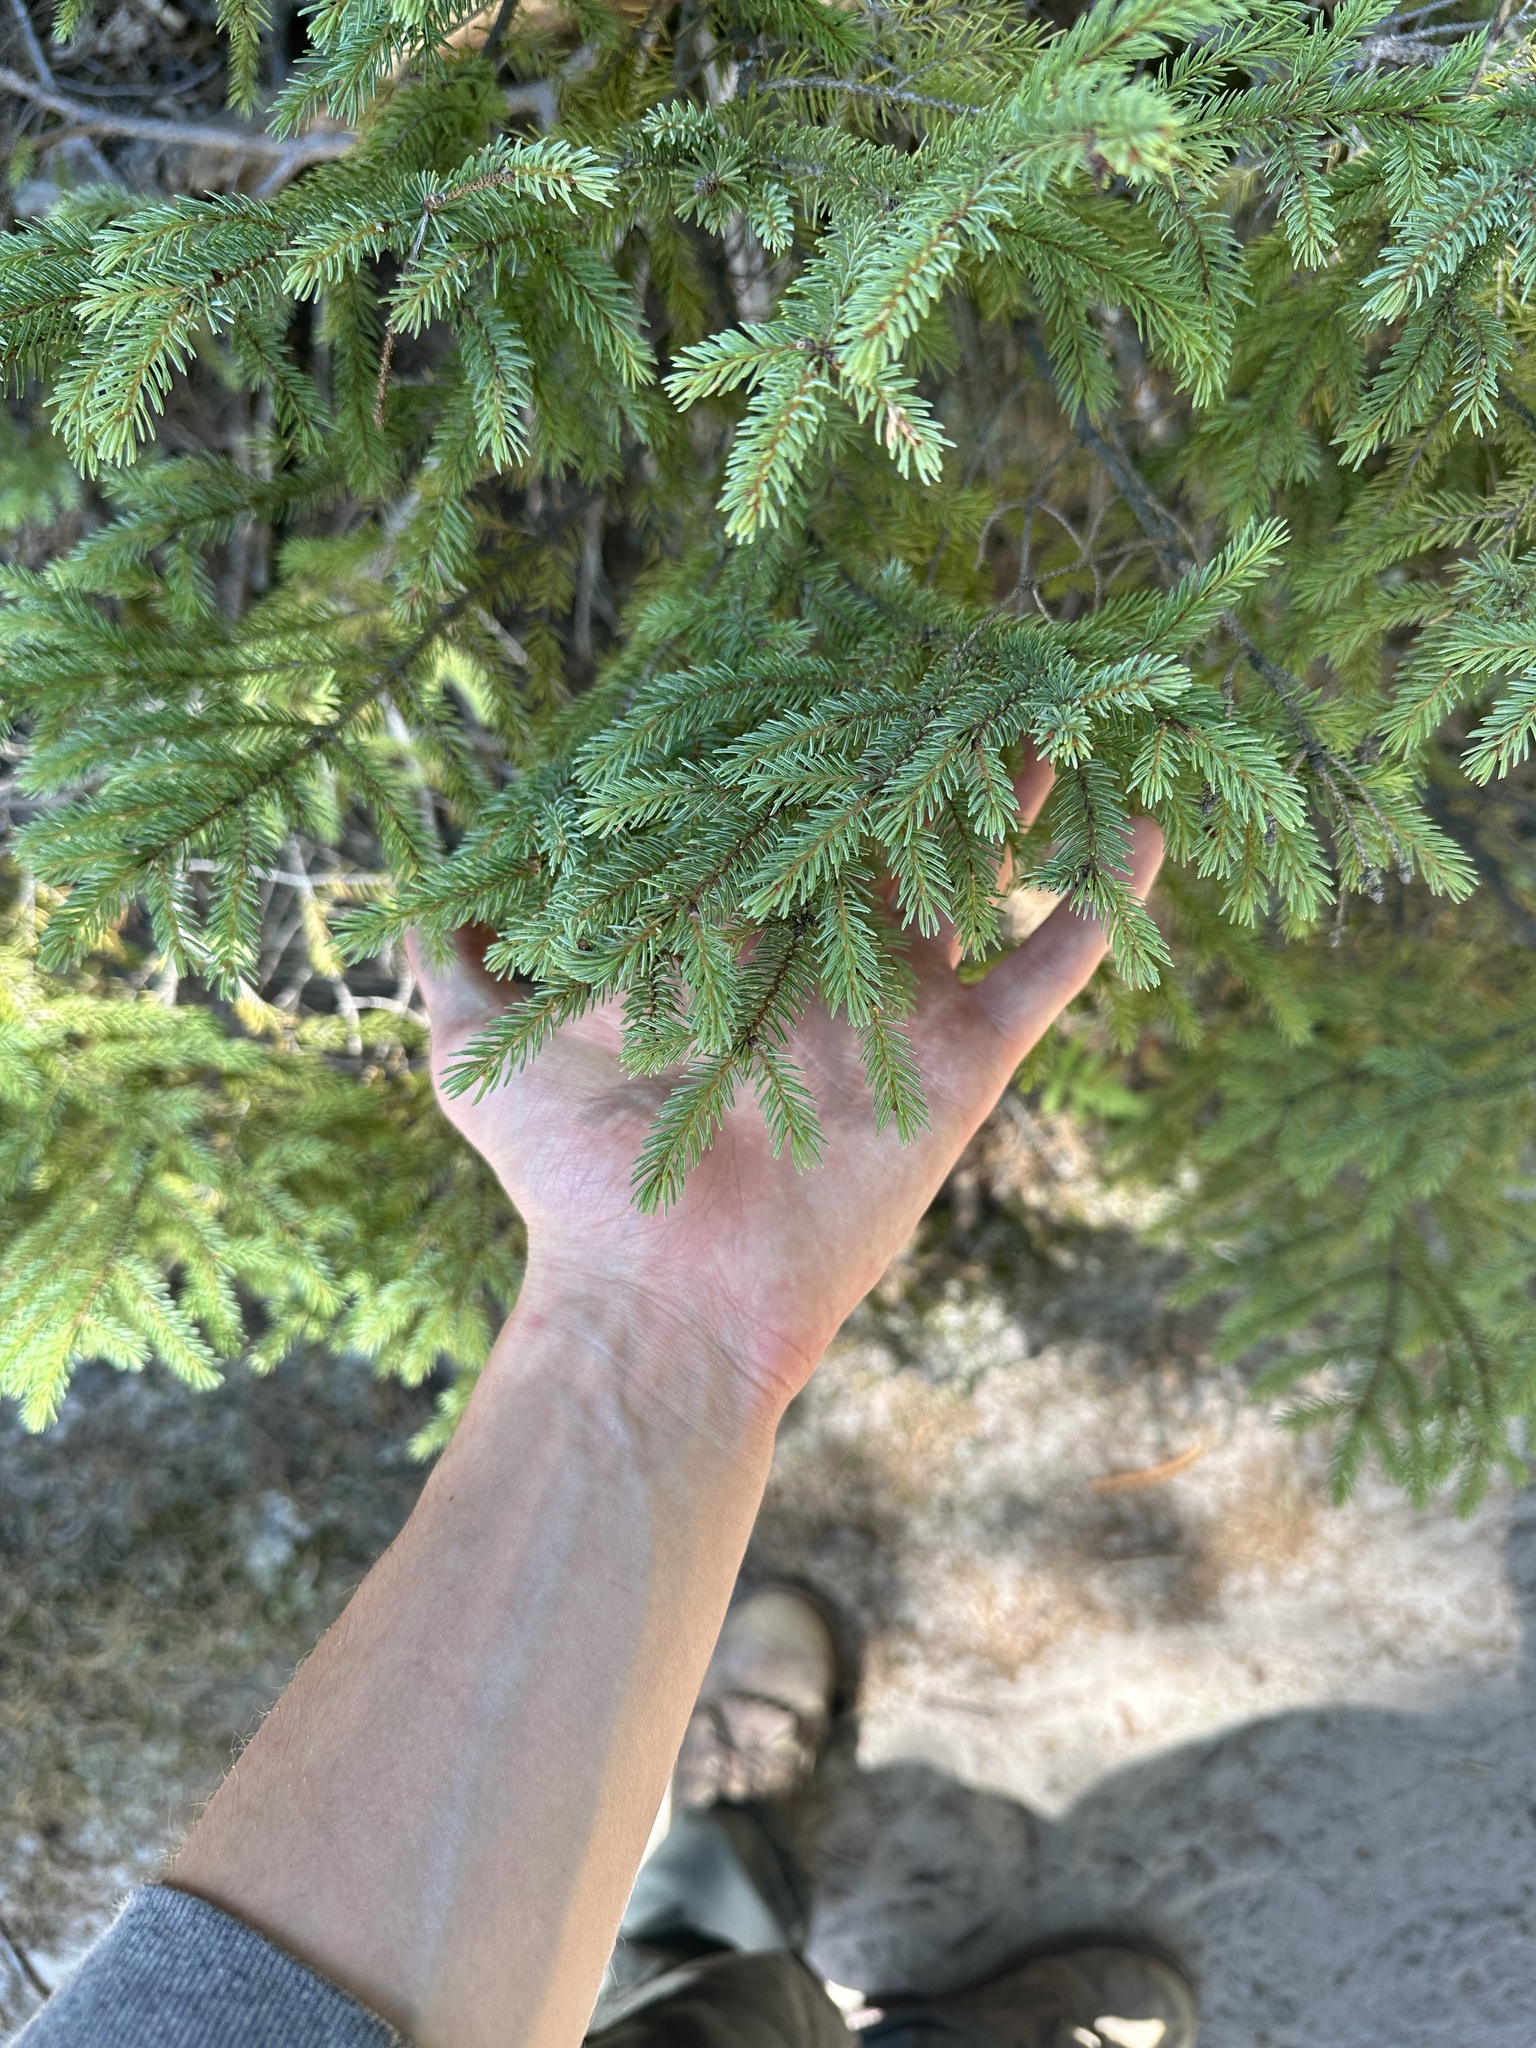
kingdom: Plantae
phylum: Tracheophyta
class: Pinopsida
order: Pinales
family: Pinaceae
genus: Picea
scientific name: Picea mariana
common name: Black spruce
